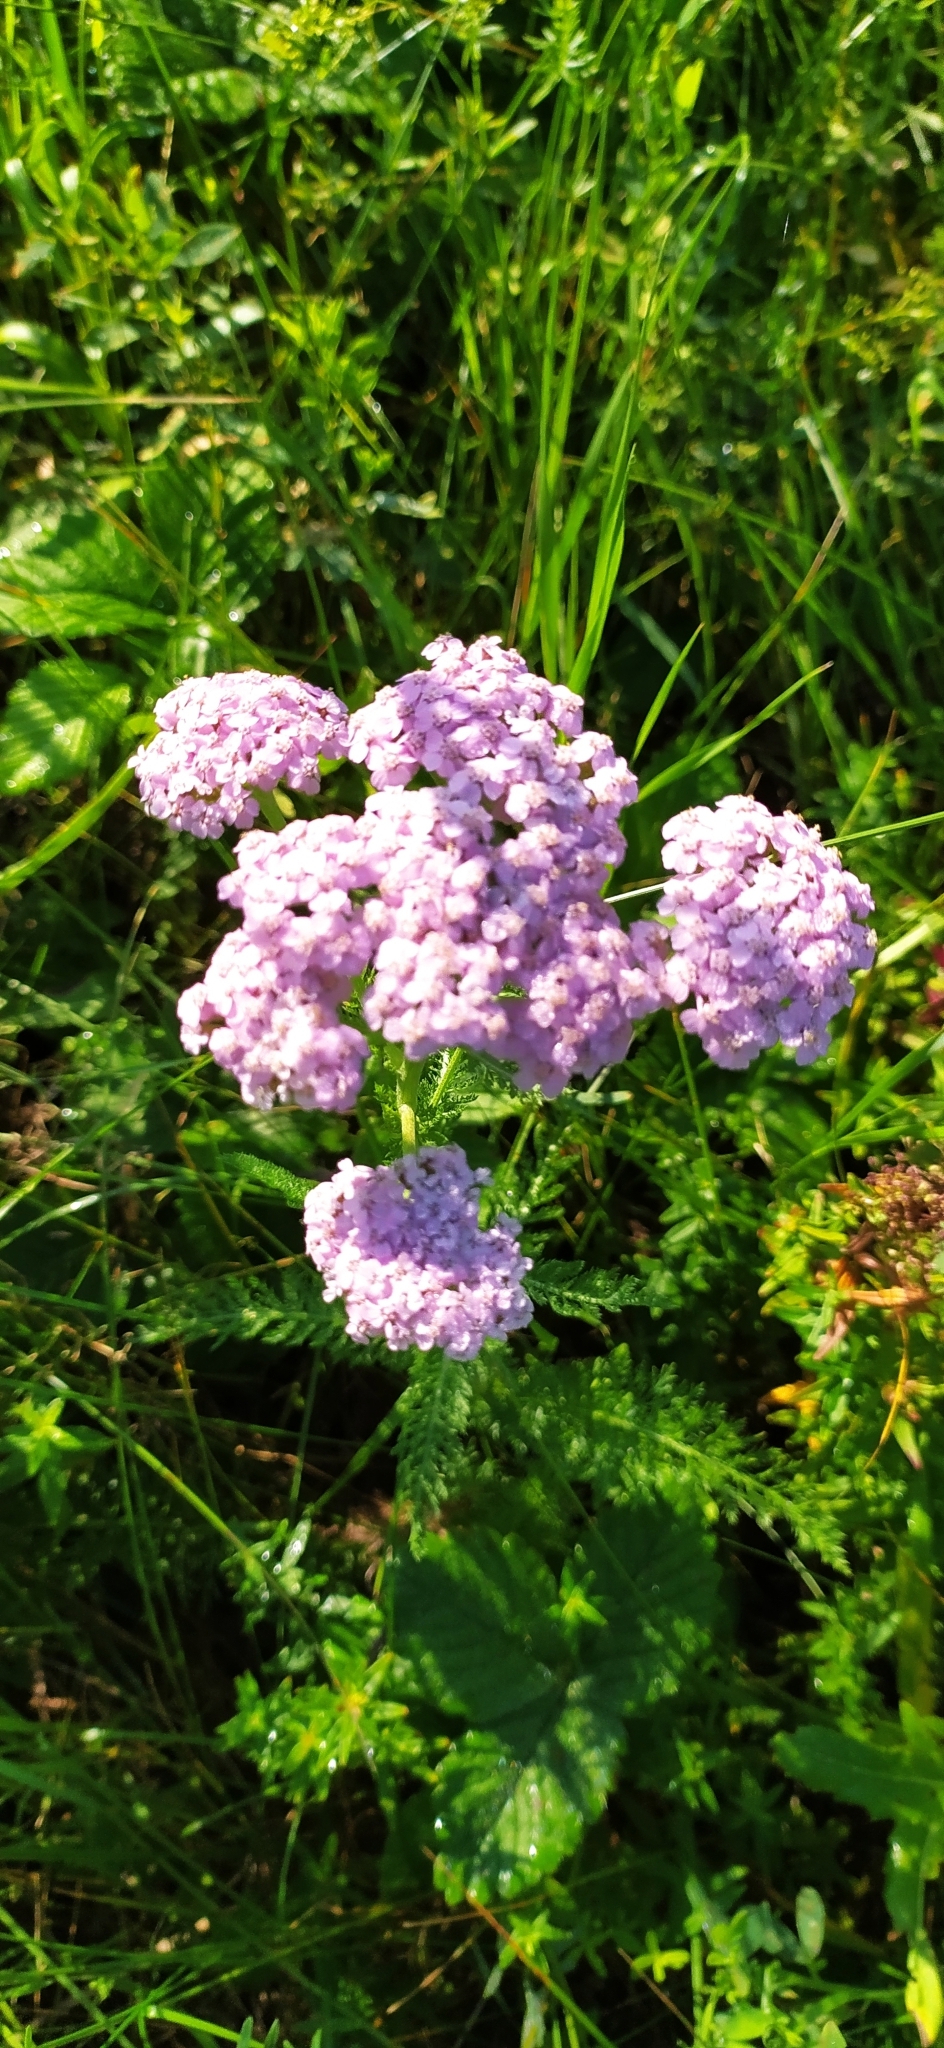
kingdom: Plantae
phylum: Tracheophyta
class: Magnoliopsida
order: Asterales
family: Asteraceae
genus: Achillea
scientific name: Achillea asiatica
